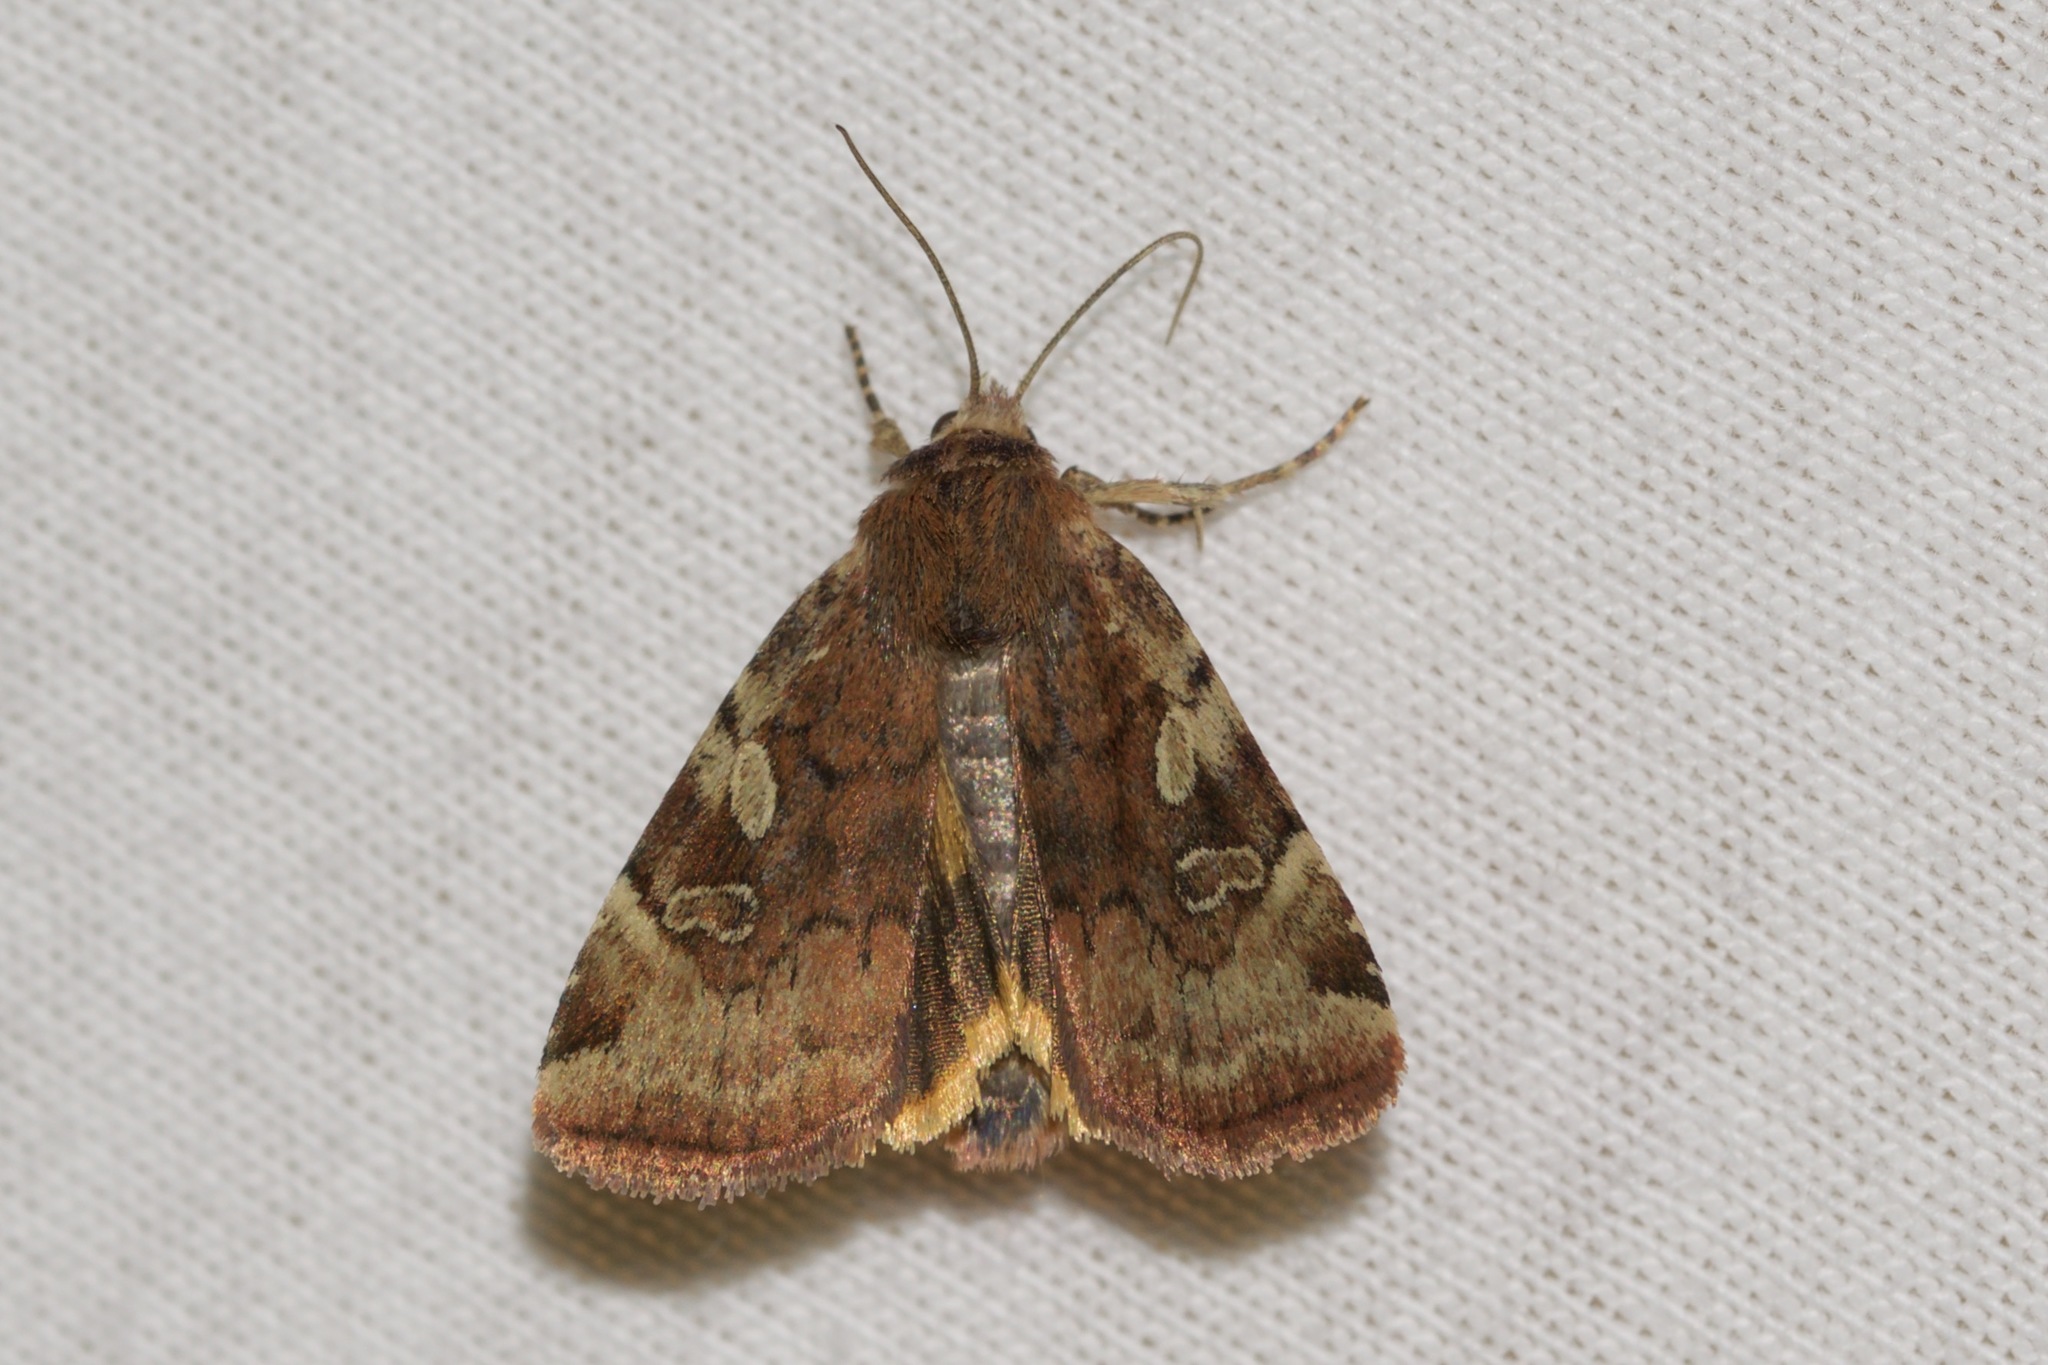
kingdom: Animalia
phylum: Arthropoda
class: Insecta
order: Lepidoptera
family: Noctuidae
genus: Cryptocala
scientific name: Cryptocala acadiensis
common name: Catocaline dart
